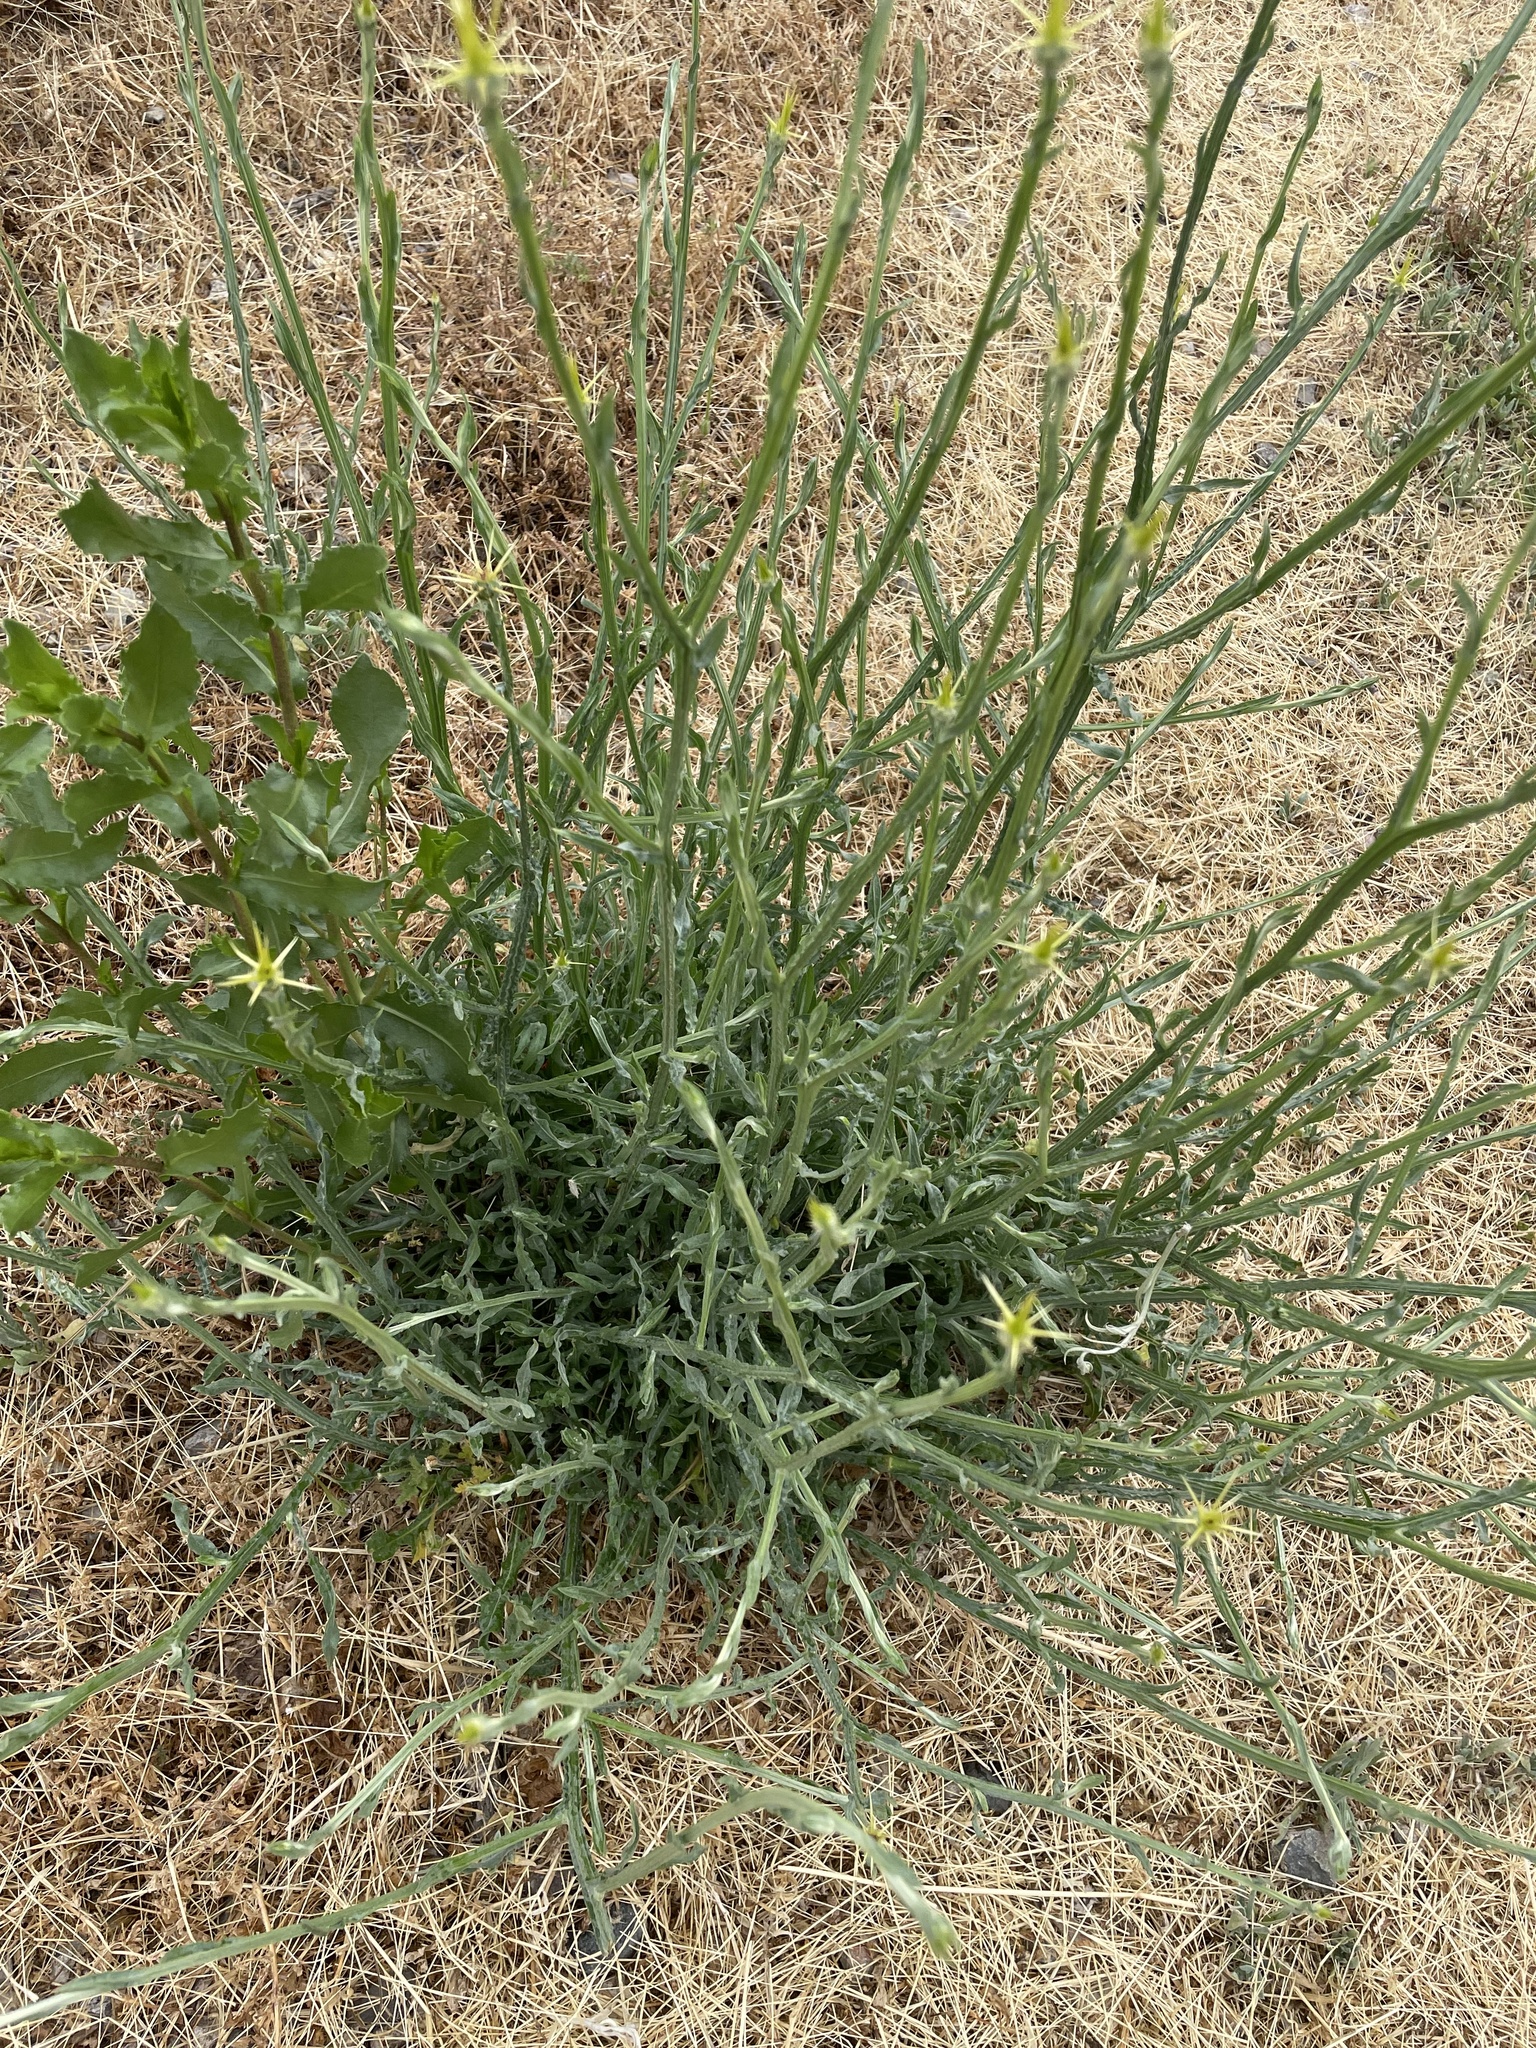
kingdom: Plantae
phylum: Tracheophyta
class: Magnoliopsida
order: Asterales
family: Asteraceae
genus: Centaurea
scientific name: Centaurea solstitialis
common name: Yellow star-thistle
